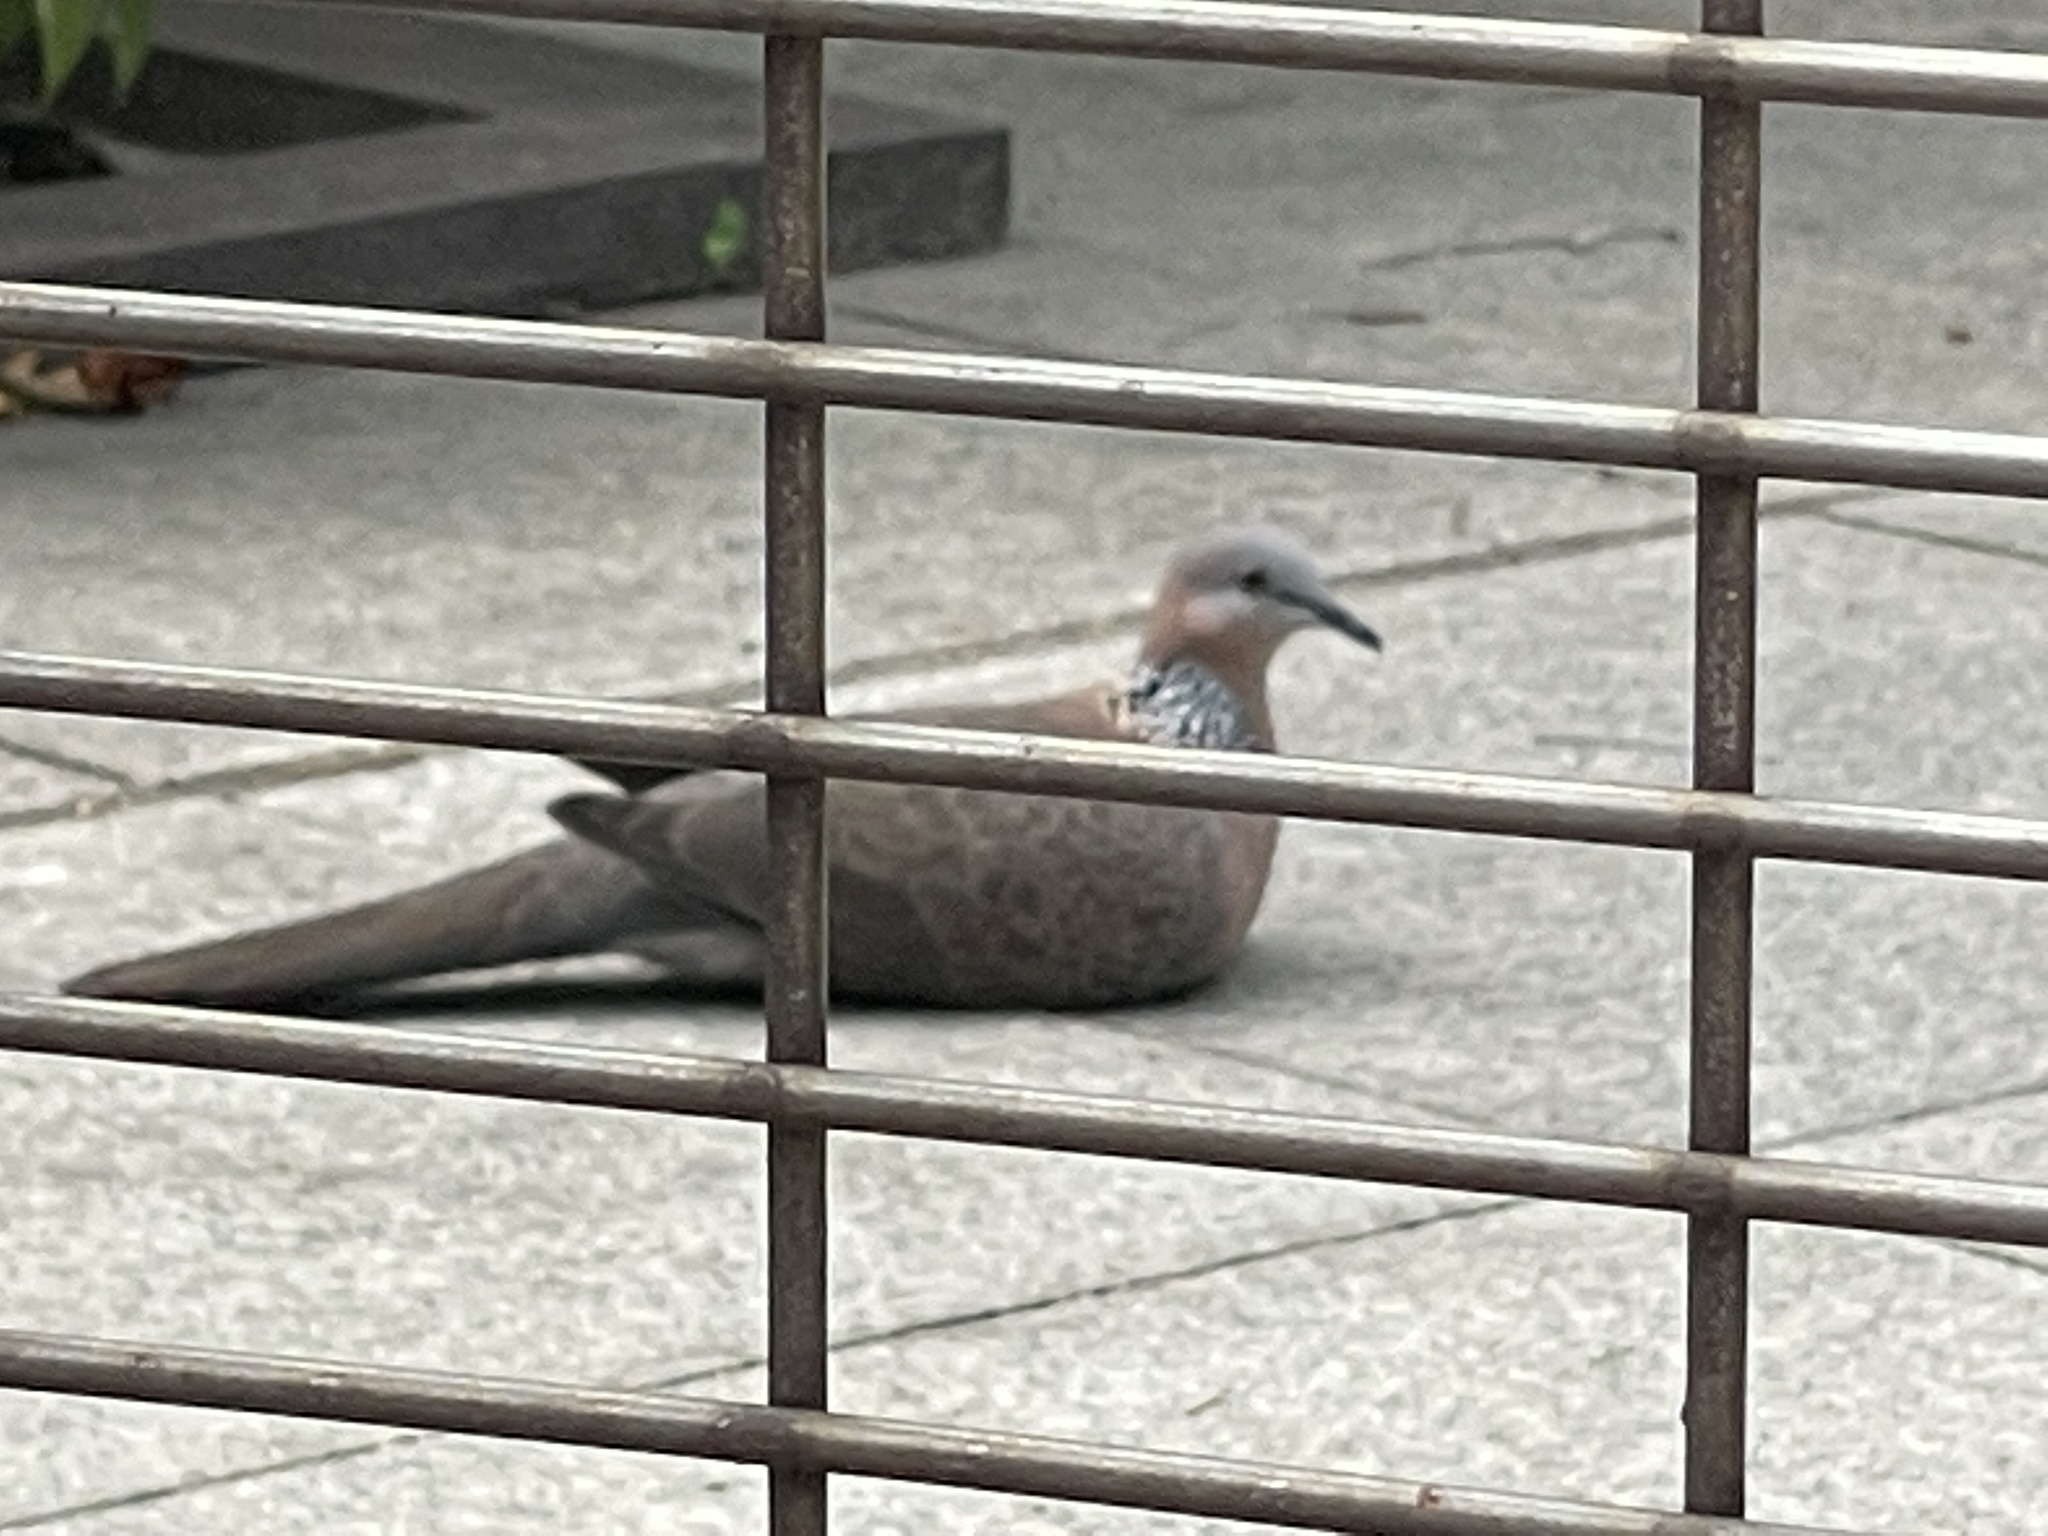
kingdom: Animalia
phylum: Chordata
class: Aves
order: Columbiformes
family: Columbidae
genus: Spilopelia
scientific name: Spilopelia chinensis
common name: Spotted dove
